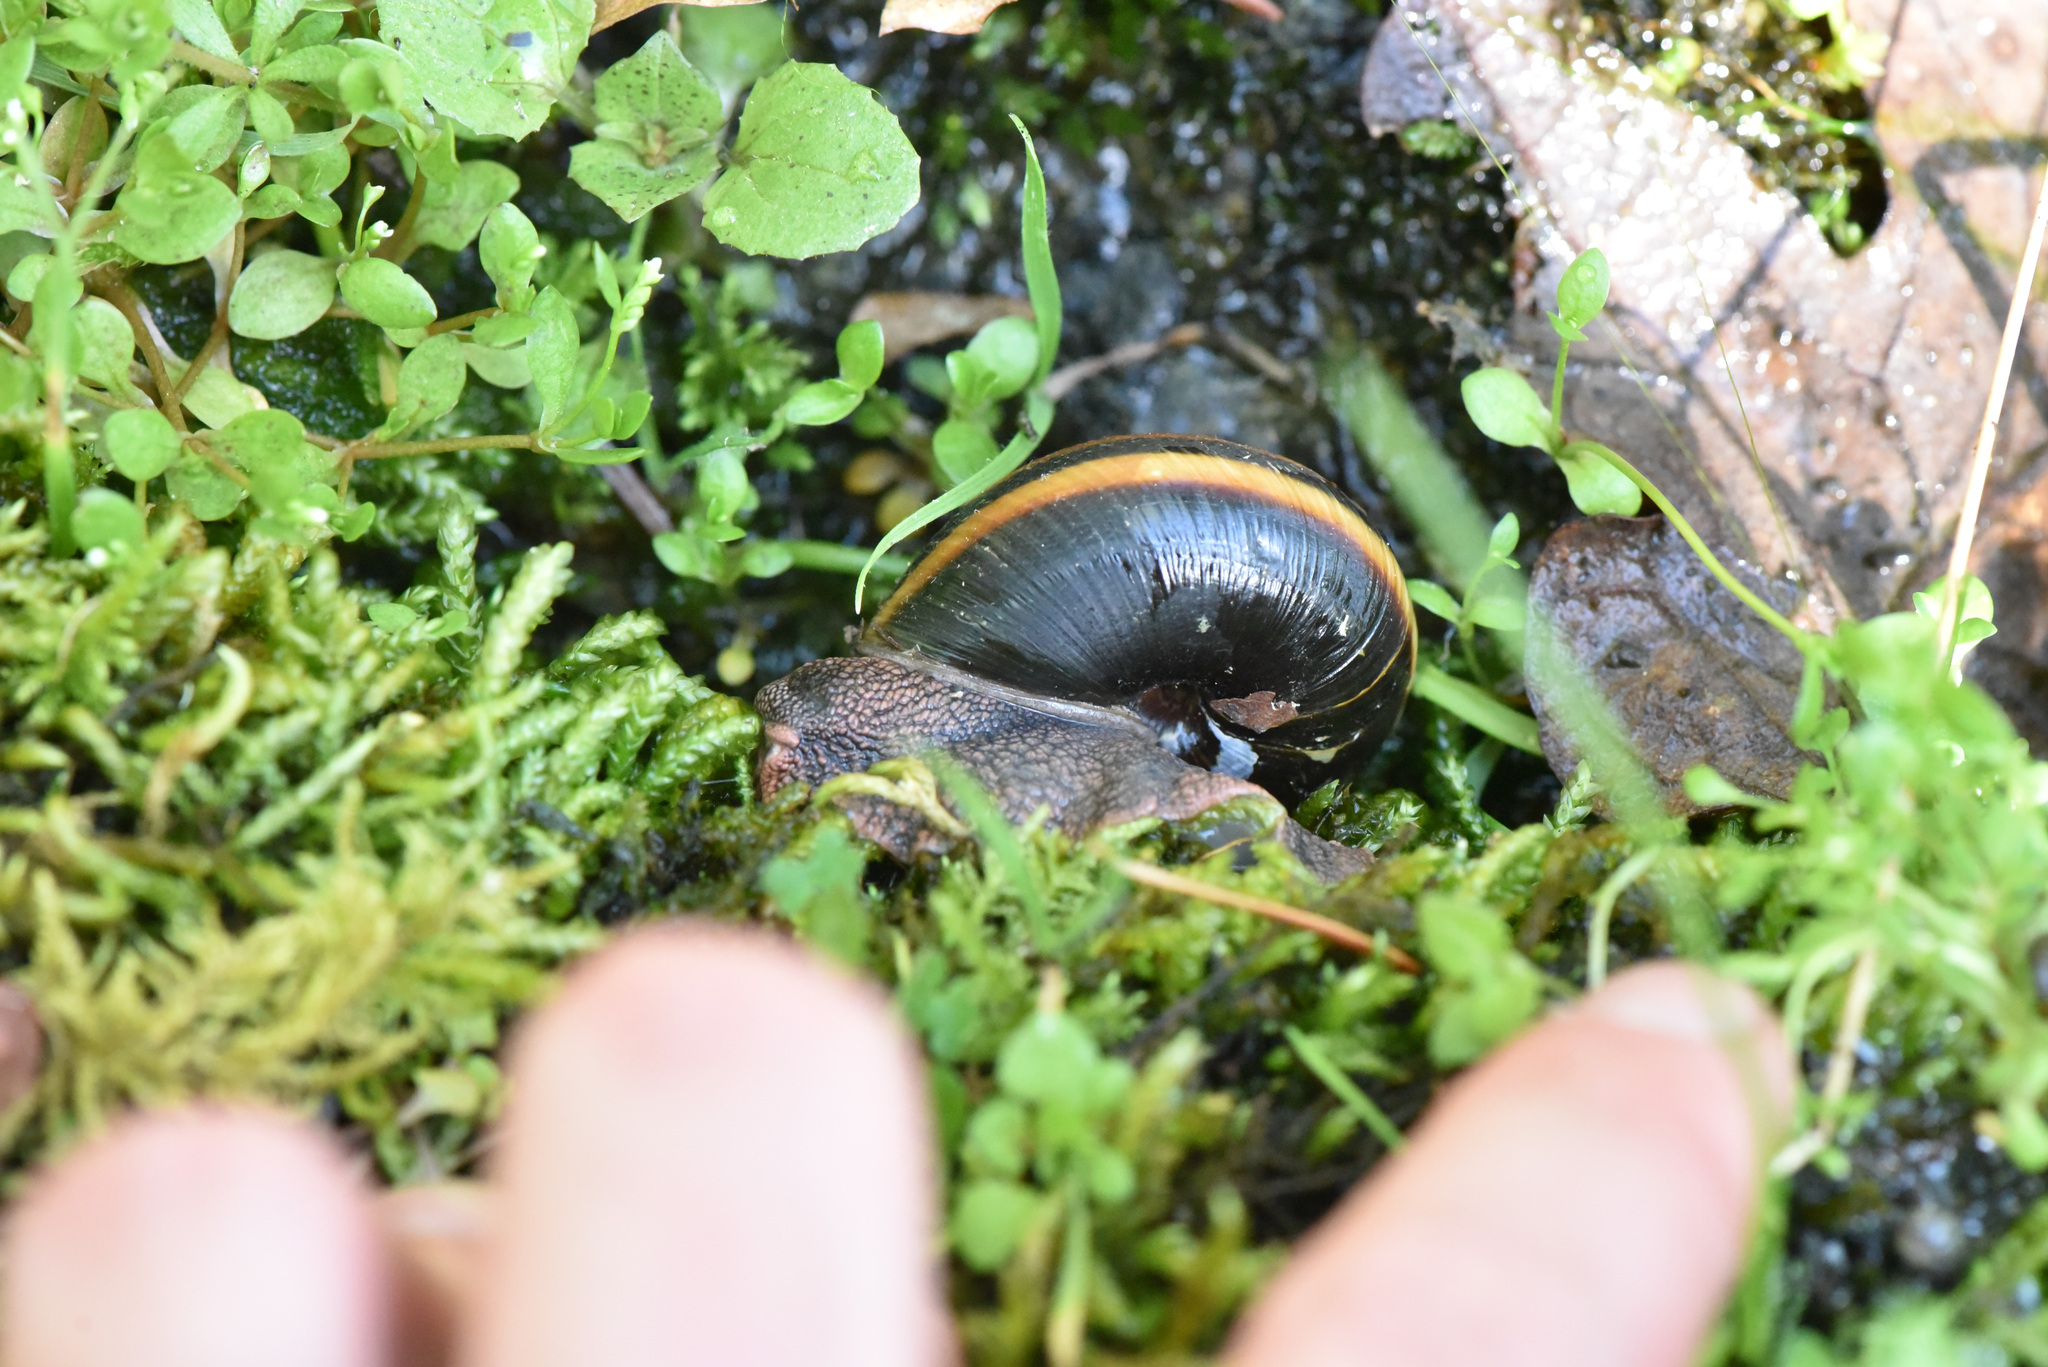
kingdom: Animalia
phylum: Mollusca
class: Gastropoda
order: Stylommatophora
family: Xanthonychidae
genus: Monadenia
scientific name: Monadenia fidelis
